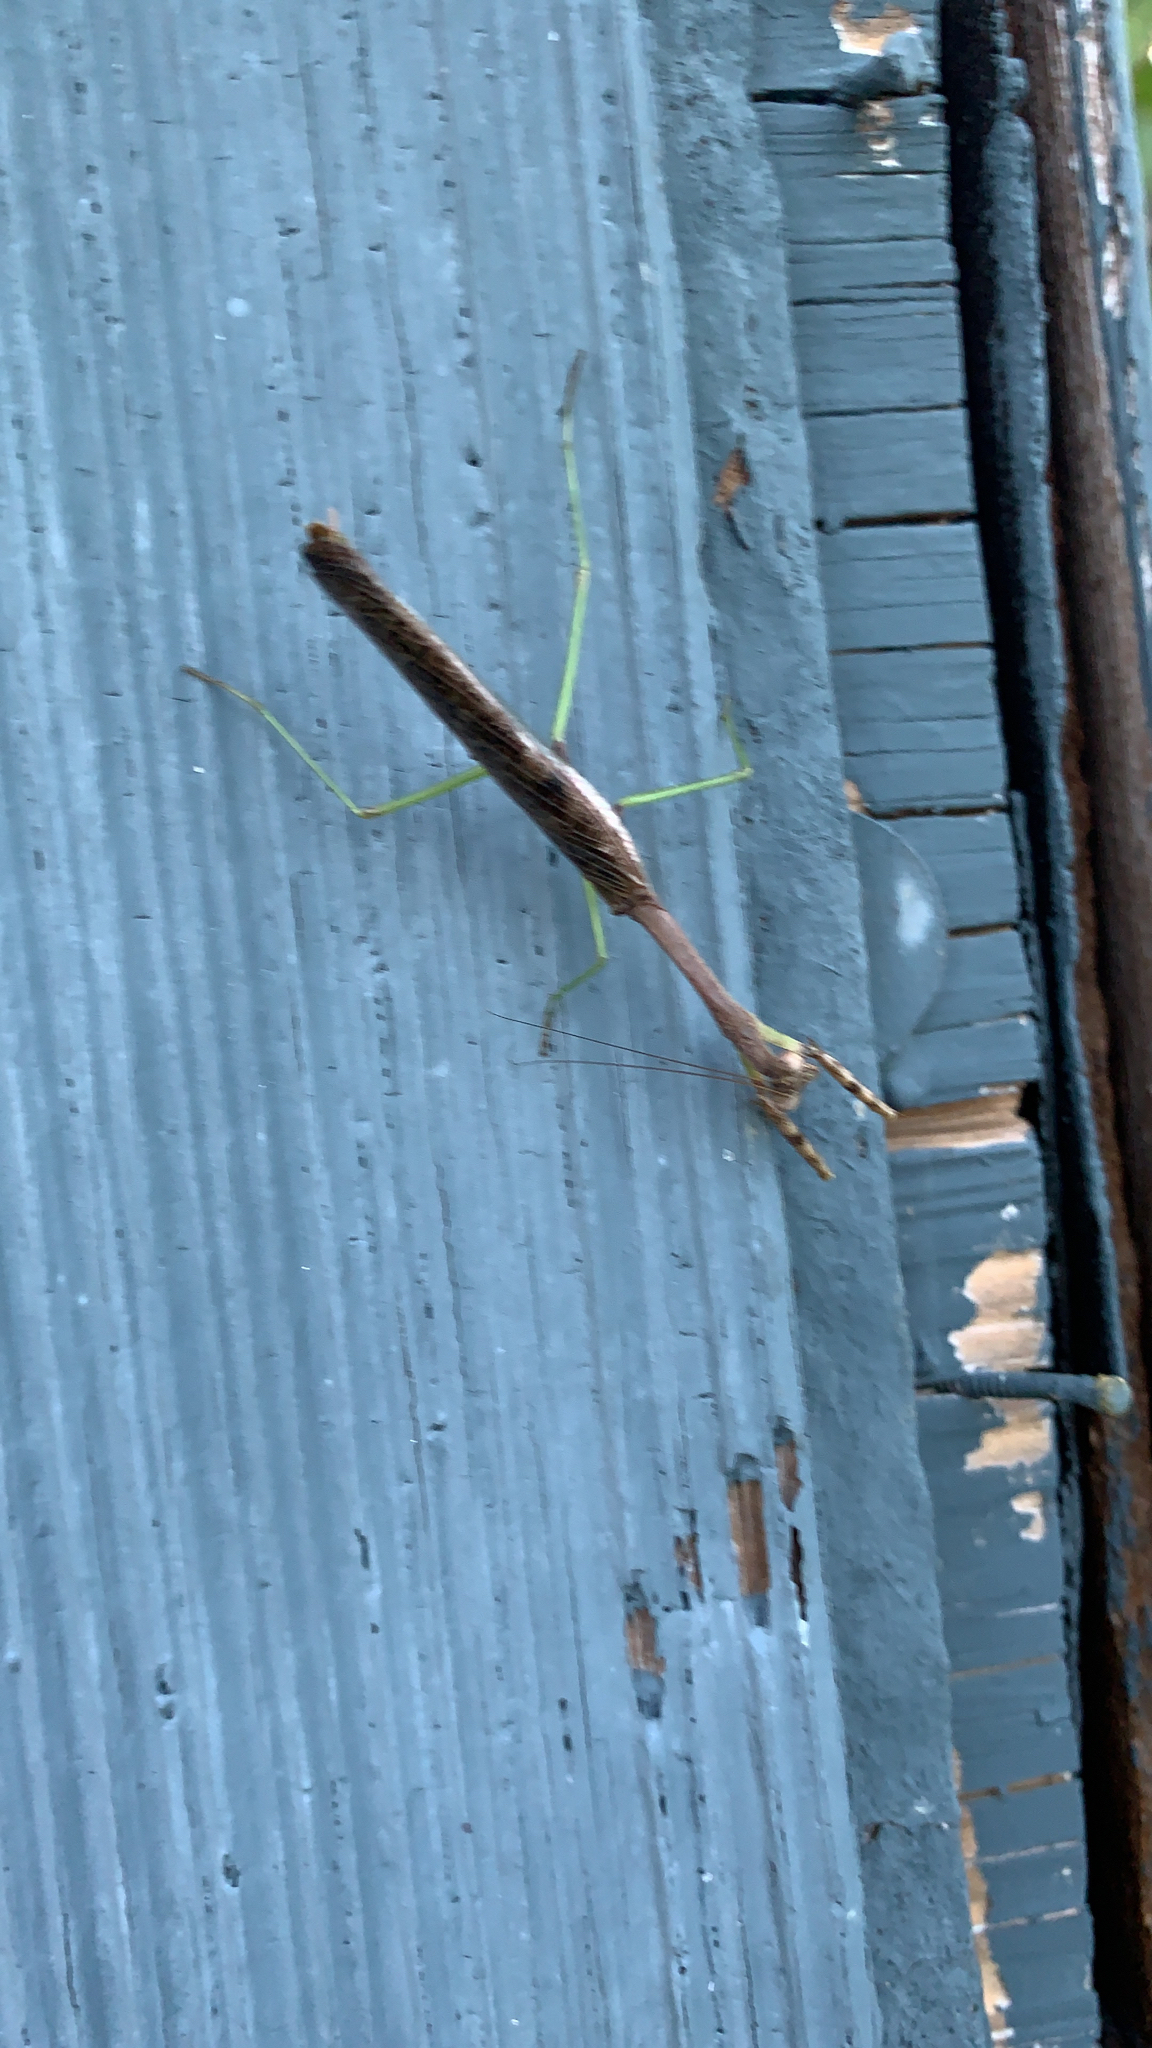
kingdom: Animalia
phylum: Arthropoda
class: Insecta
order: Mantodea
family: Mantidae
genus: Stagmomantis
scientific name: Stagmomantis carolina
